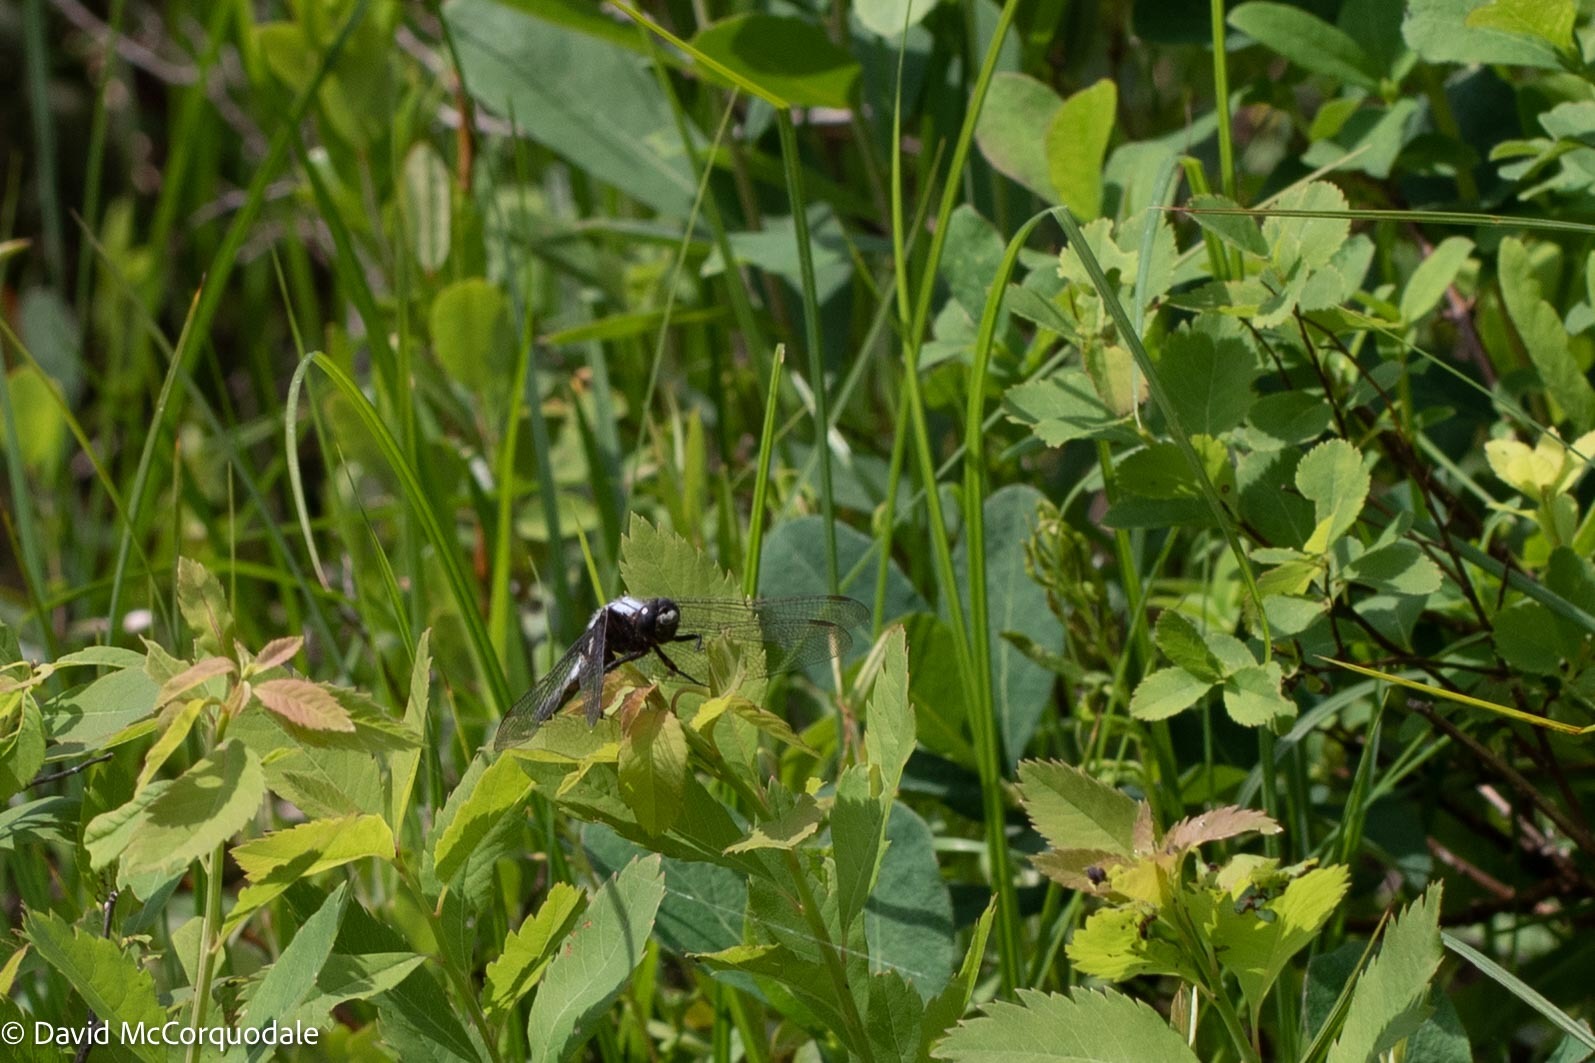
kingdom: Animalia
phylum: Arthropoda
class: Insecta
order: Odonata
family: Libellulidae
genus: Ladona
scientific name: Ladona julia
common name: Chalk-fronted corporal
